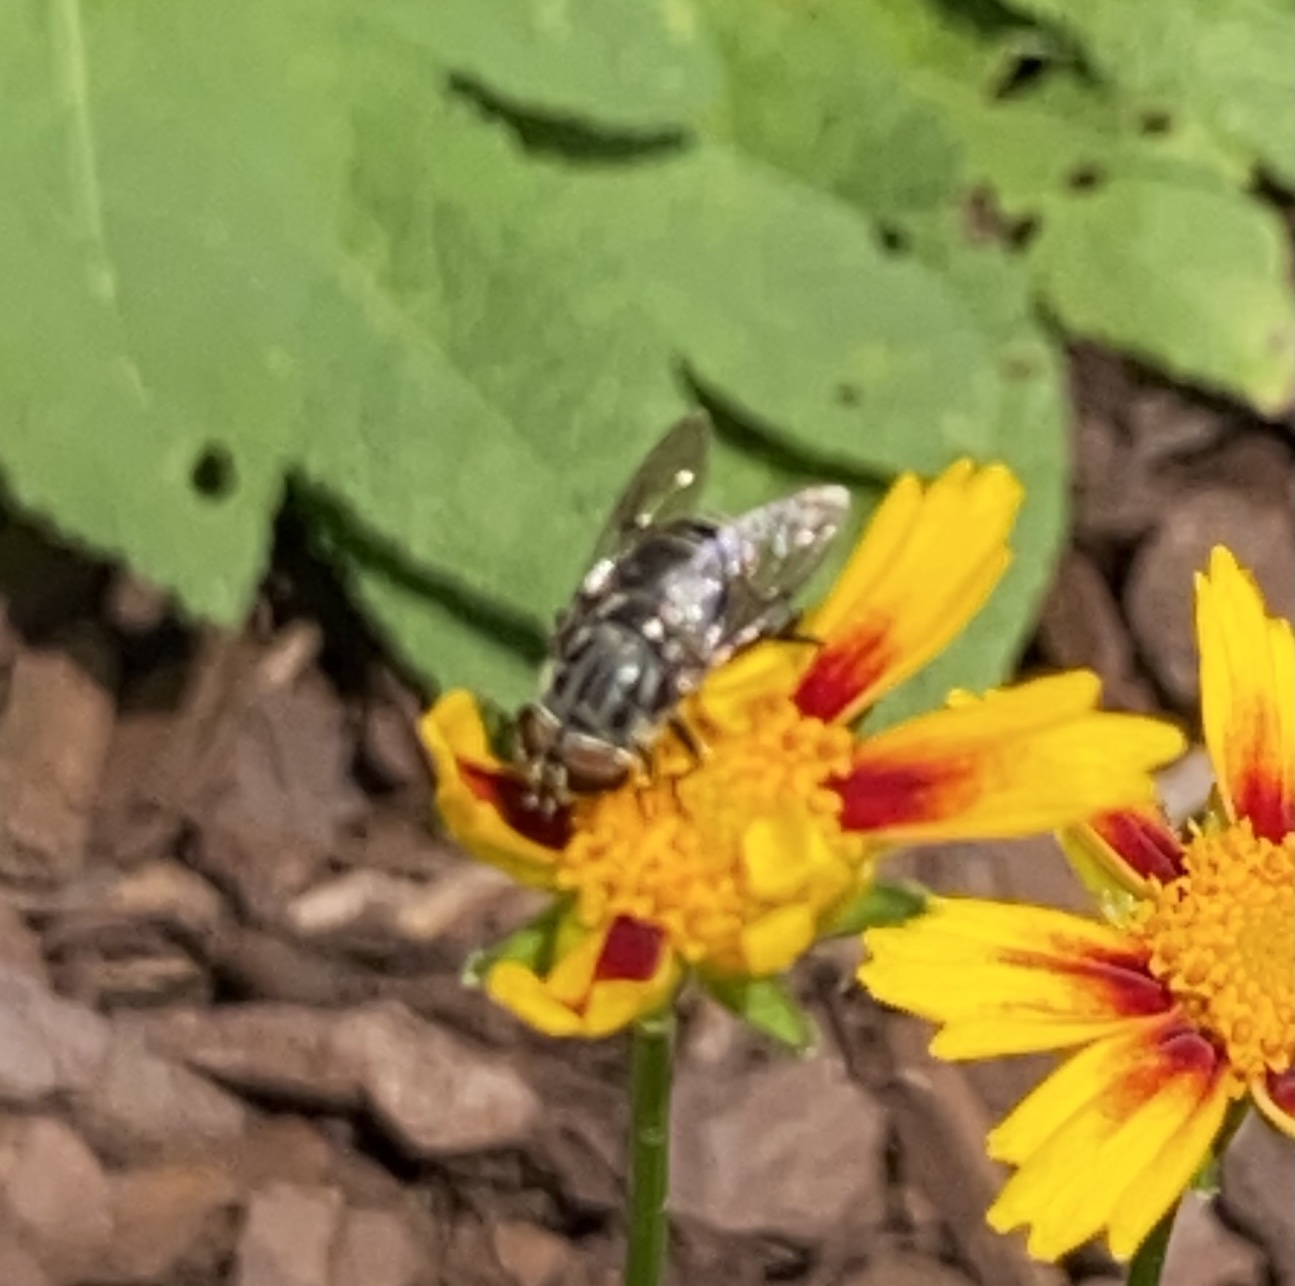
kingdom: Animalia
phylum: Arthropoda
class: Insecta
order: Diptera
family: Syrphidae
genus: Palpada
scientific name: Palpada furcata
